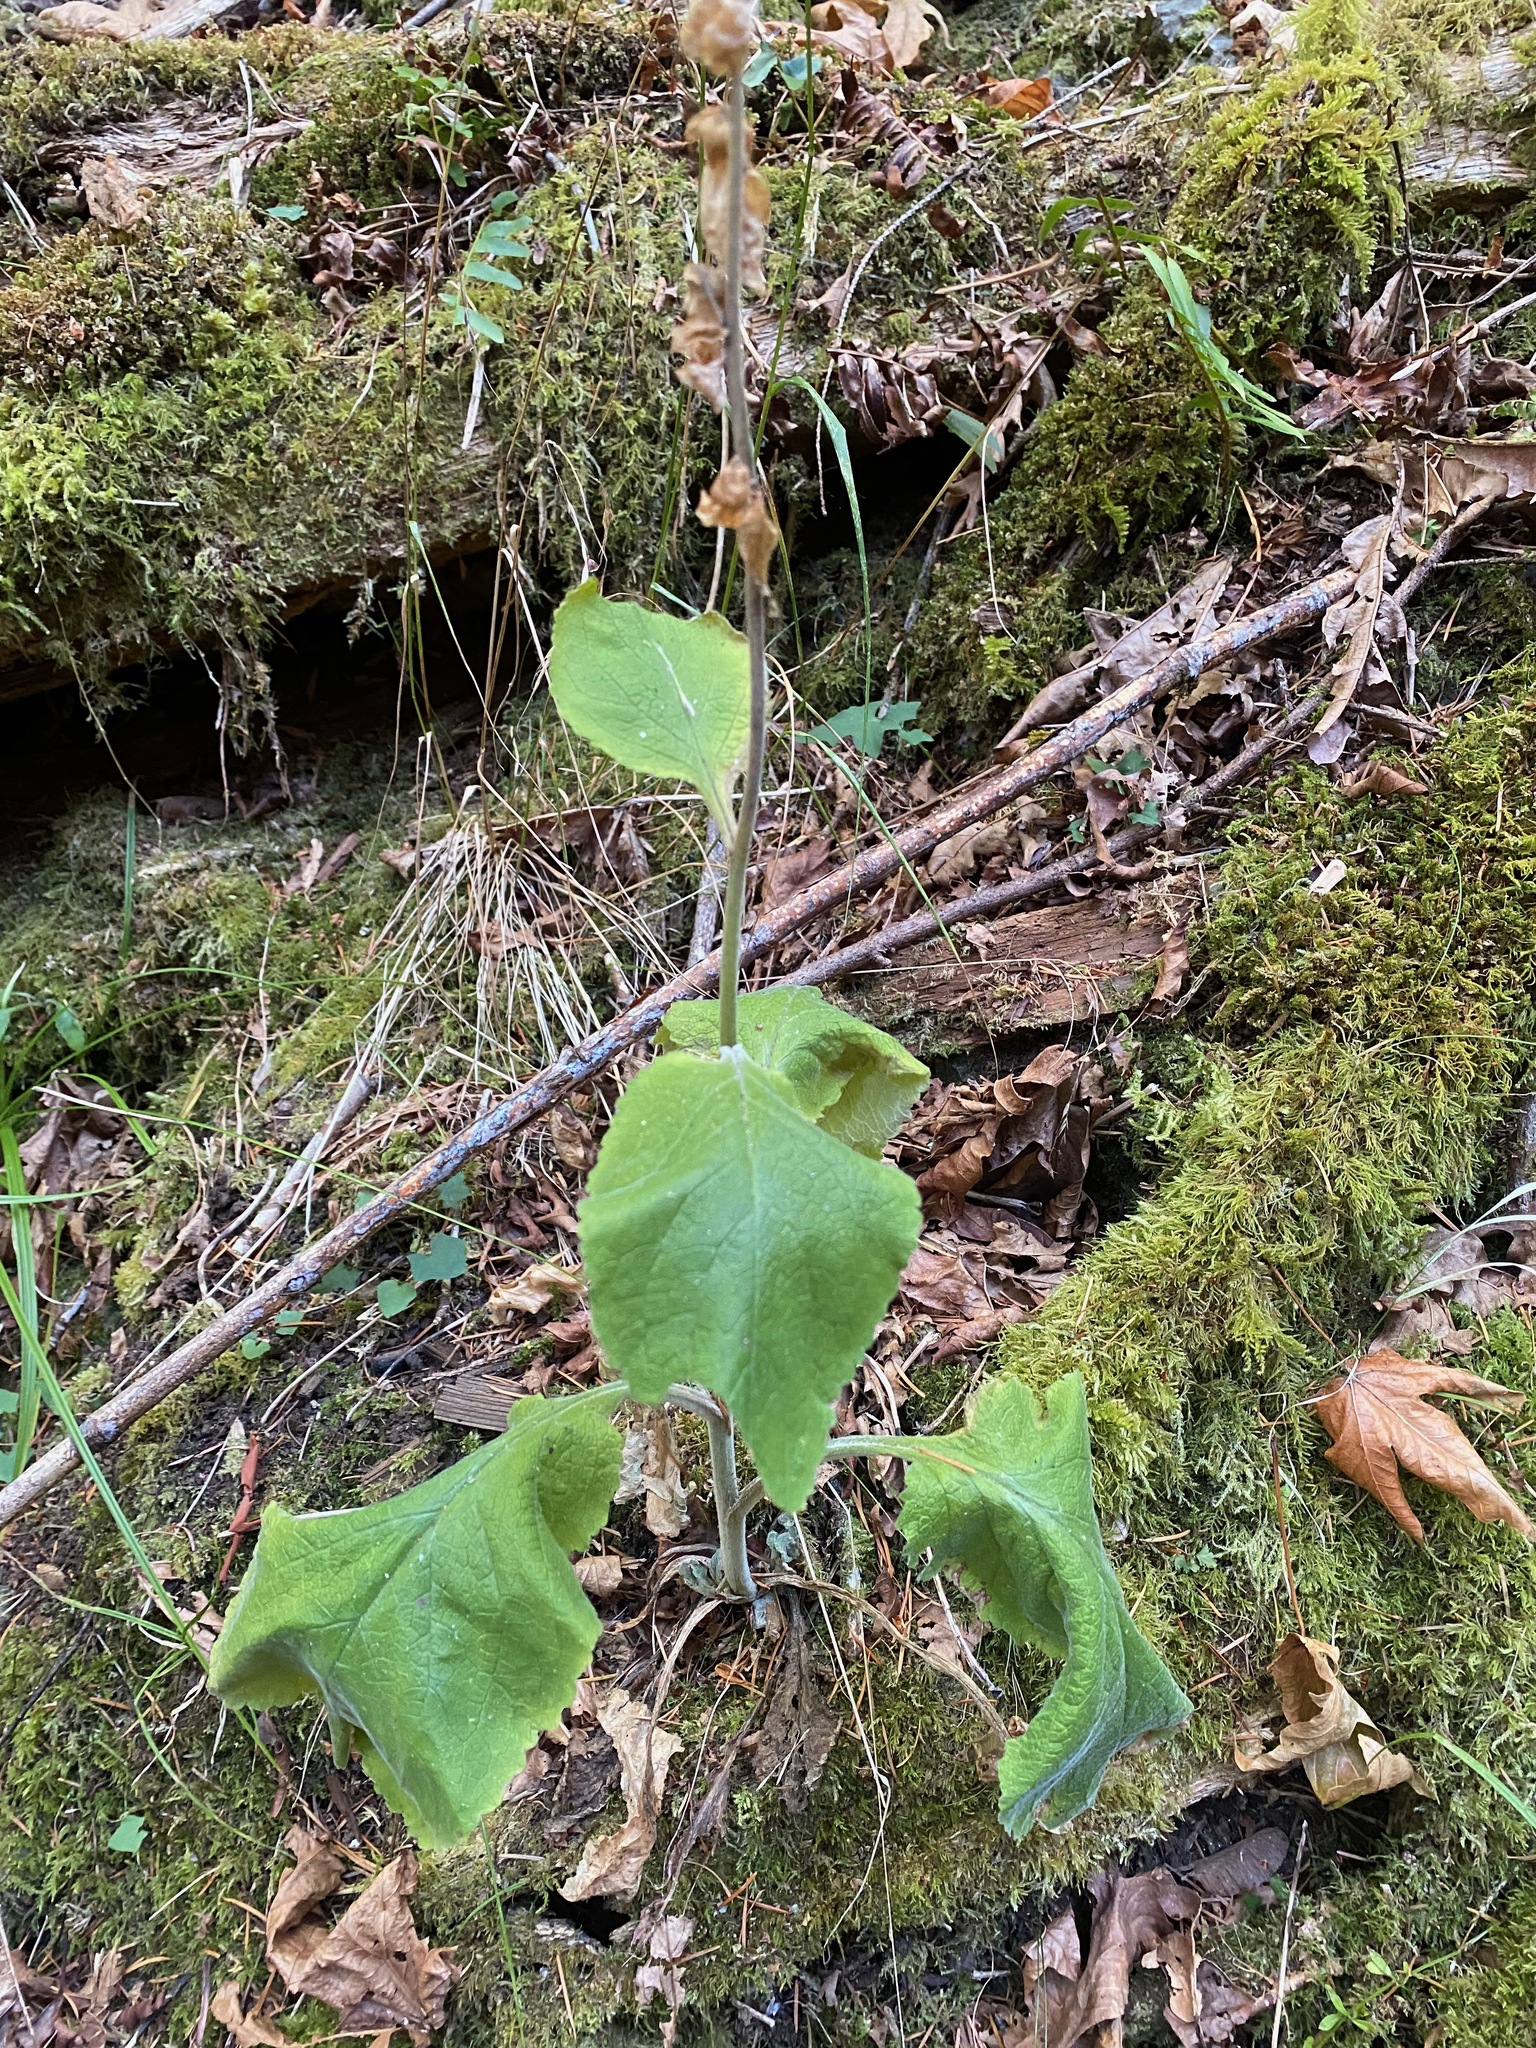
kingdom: Plantae
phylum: Tracheophyta
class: Magnoliopsida
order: Lamiales
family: Plantaginaceae
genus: Digitalis
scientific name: Digitalis purpurea
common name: Foxglove
